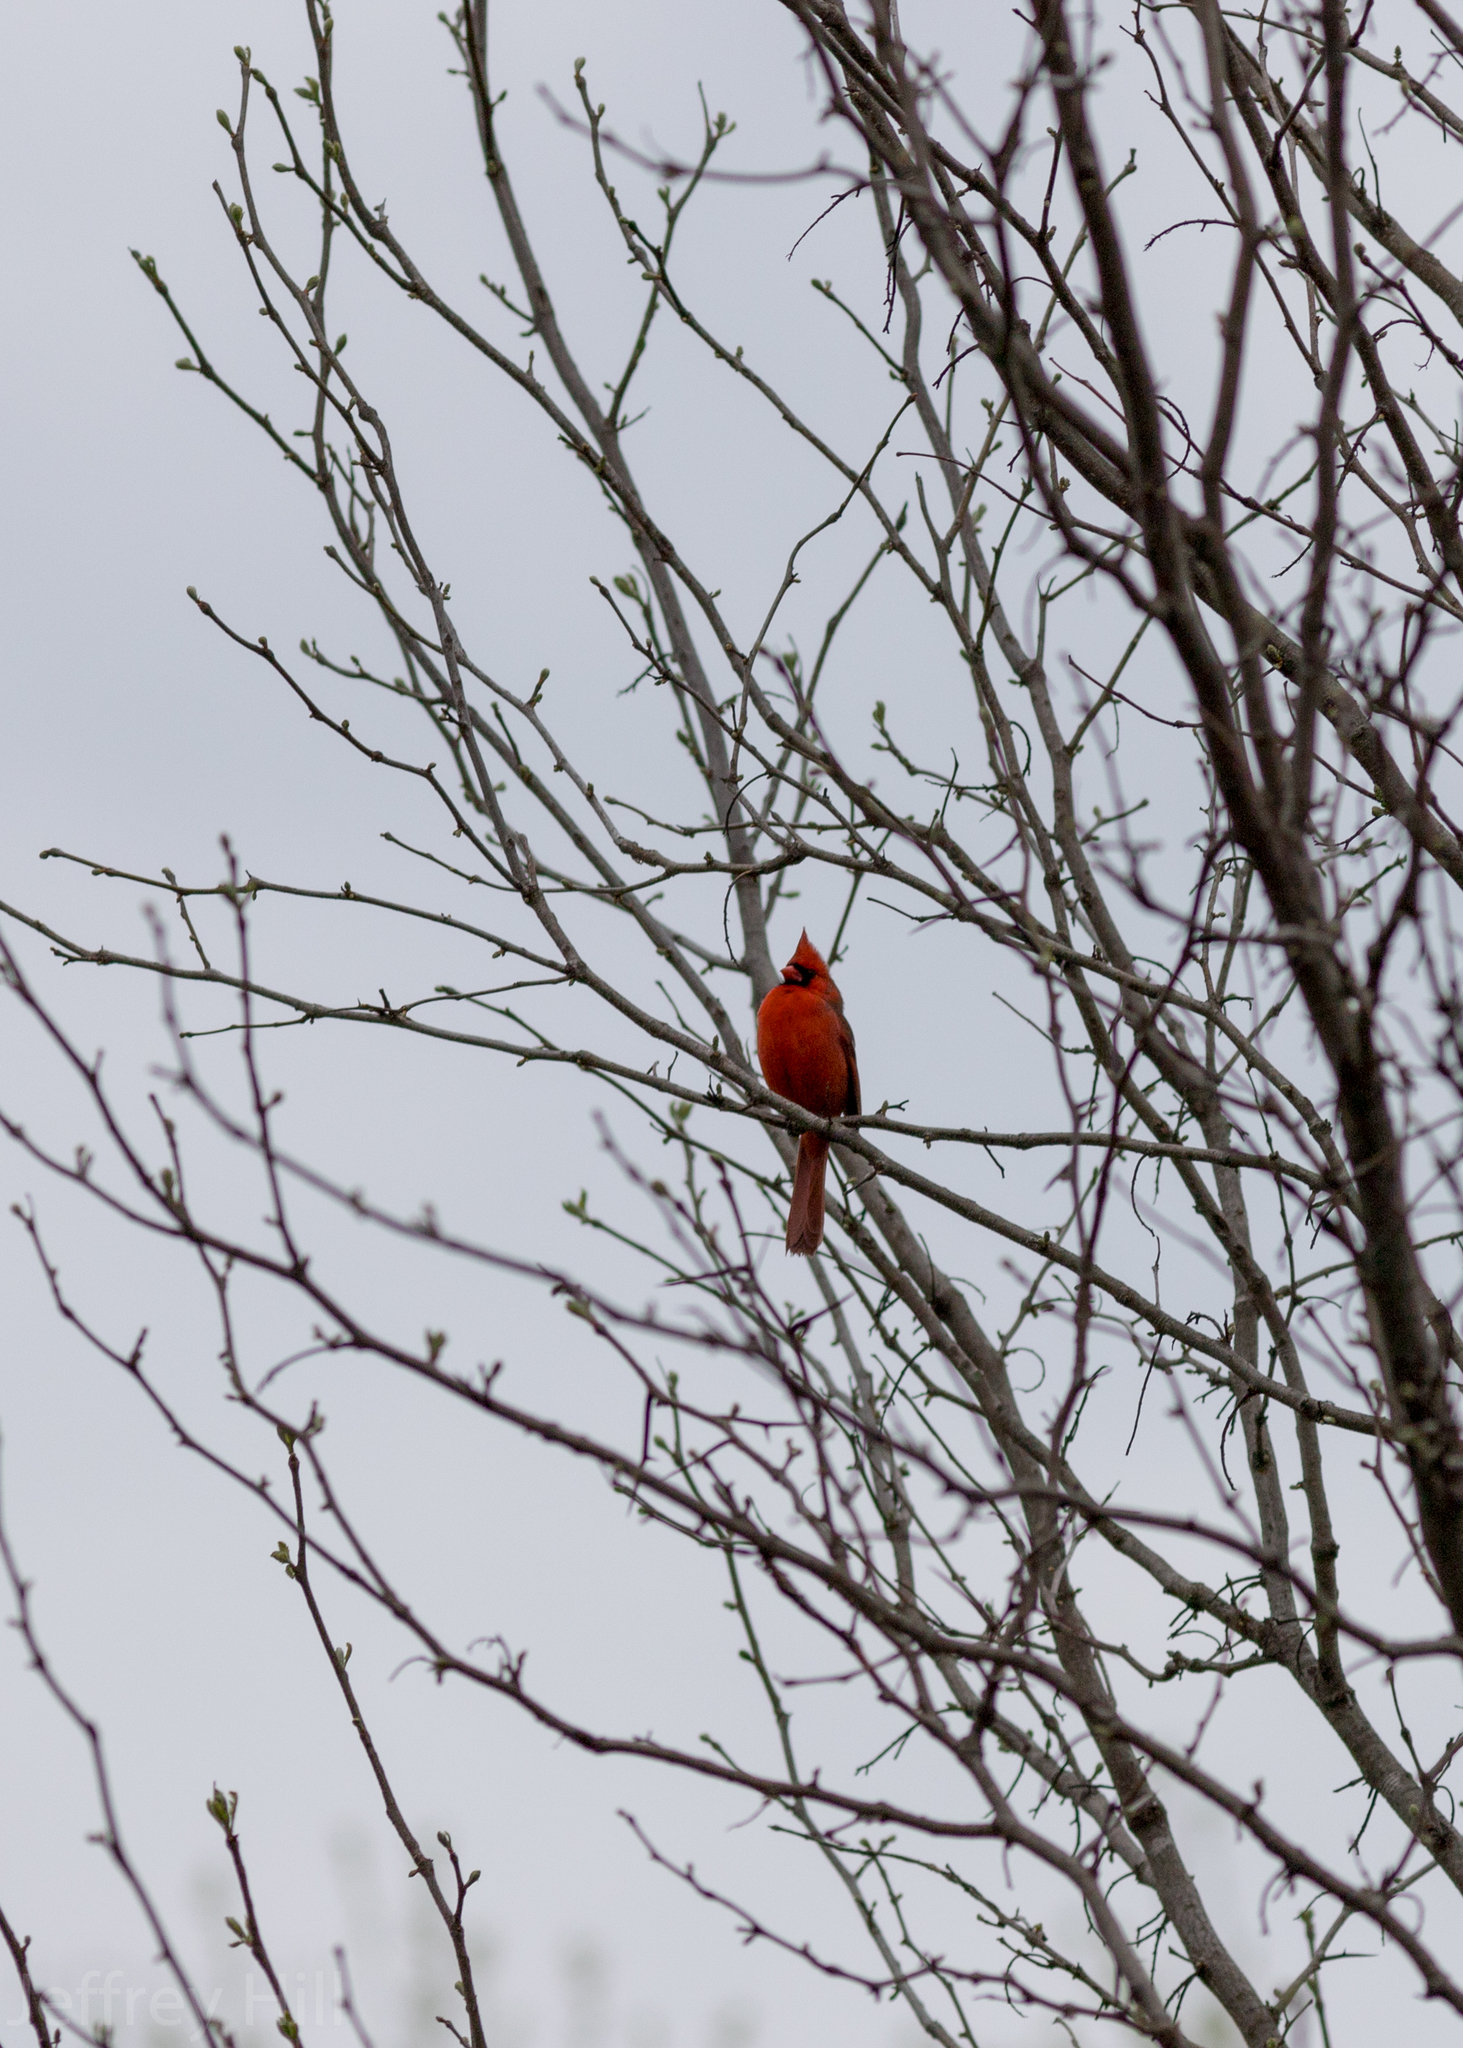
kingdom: Animalia
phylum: Chordata
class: Aves
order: Passeriformes
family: Cardinalidae
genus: Cardinalis
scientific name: Cardinalis cardinalis
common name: Northern cardinal
